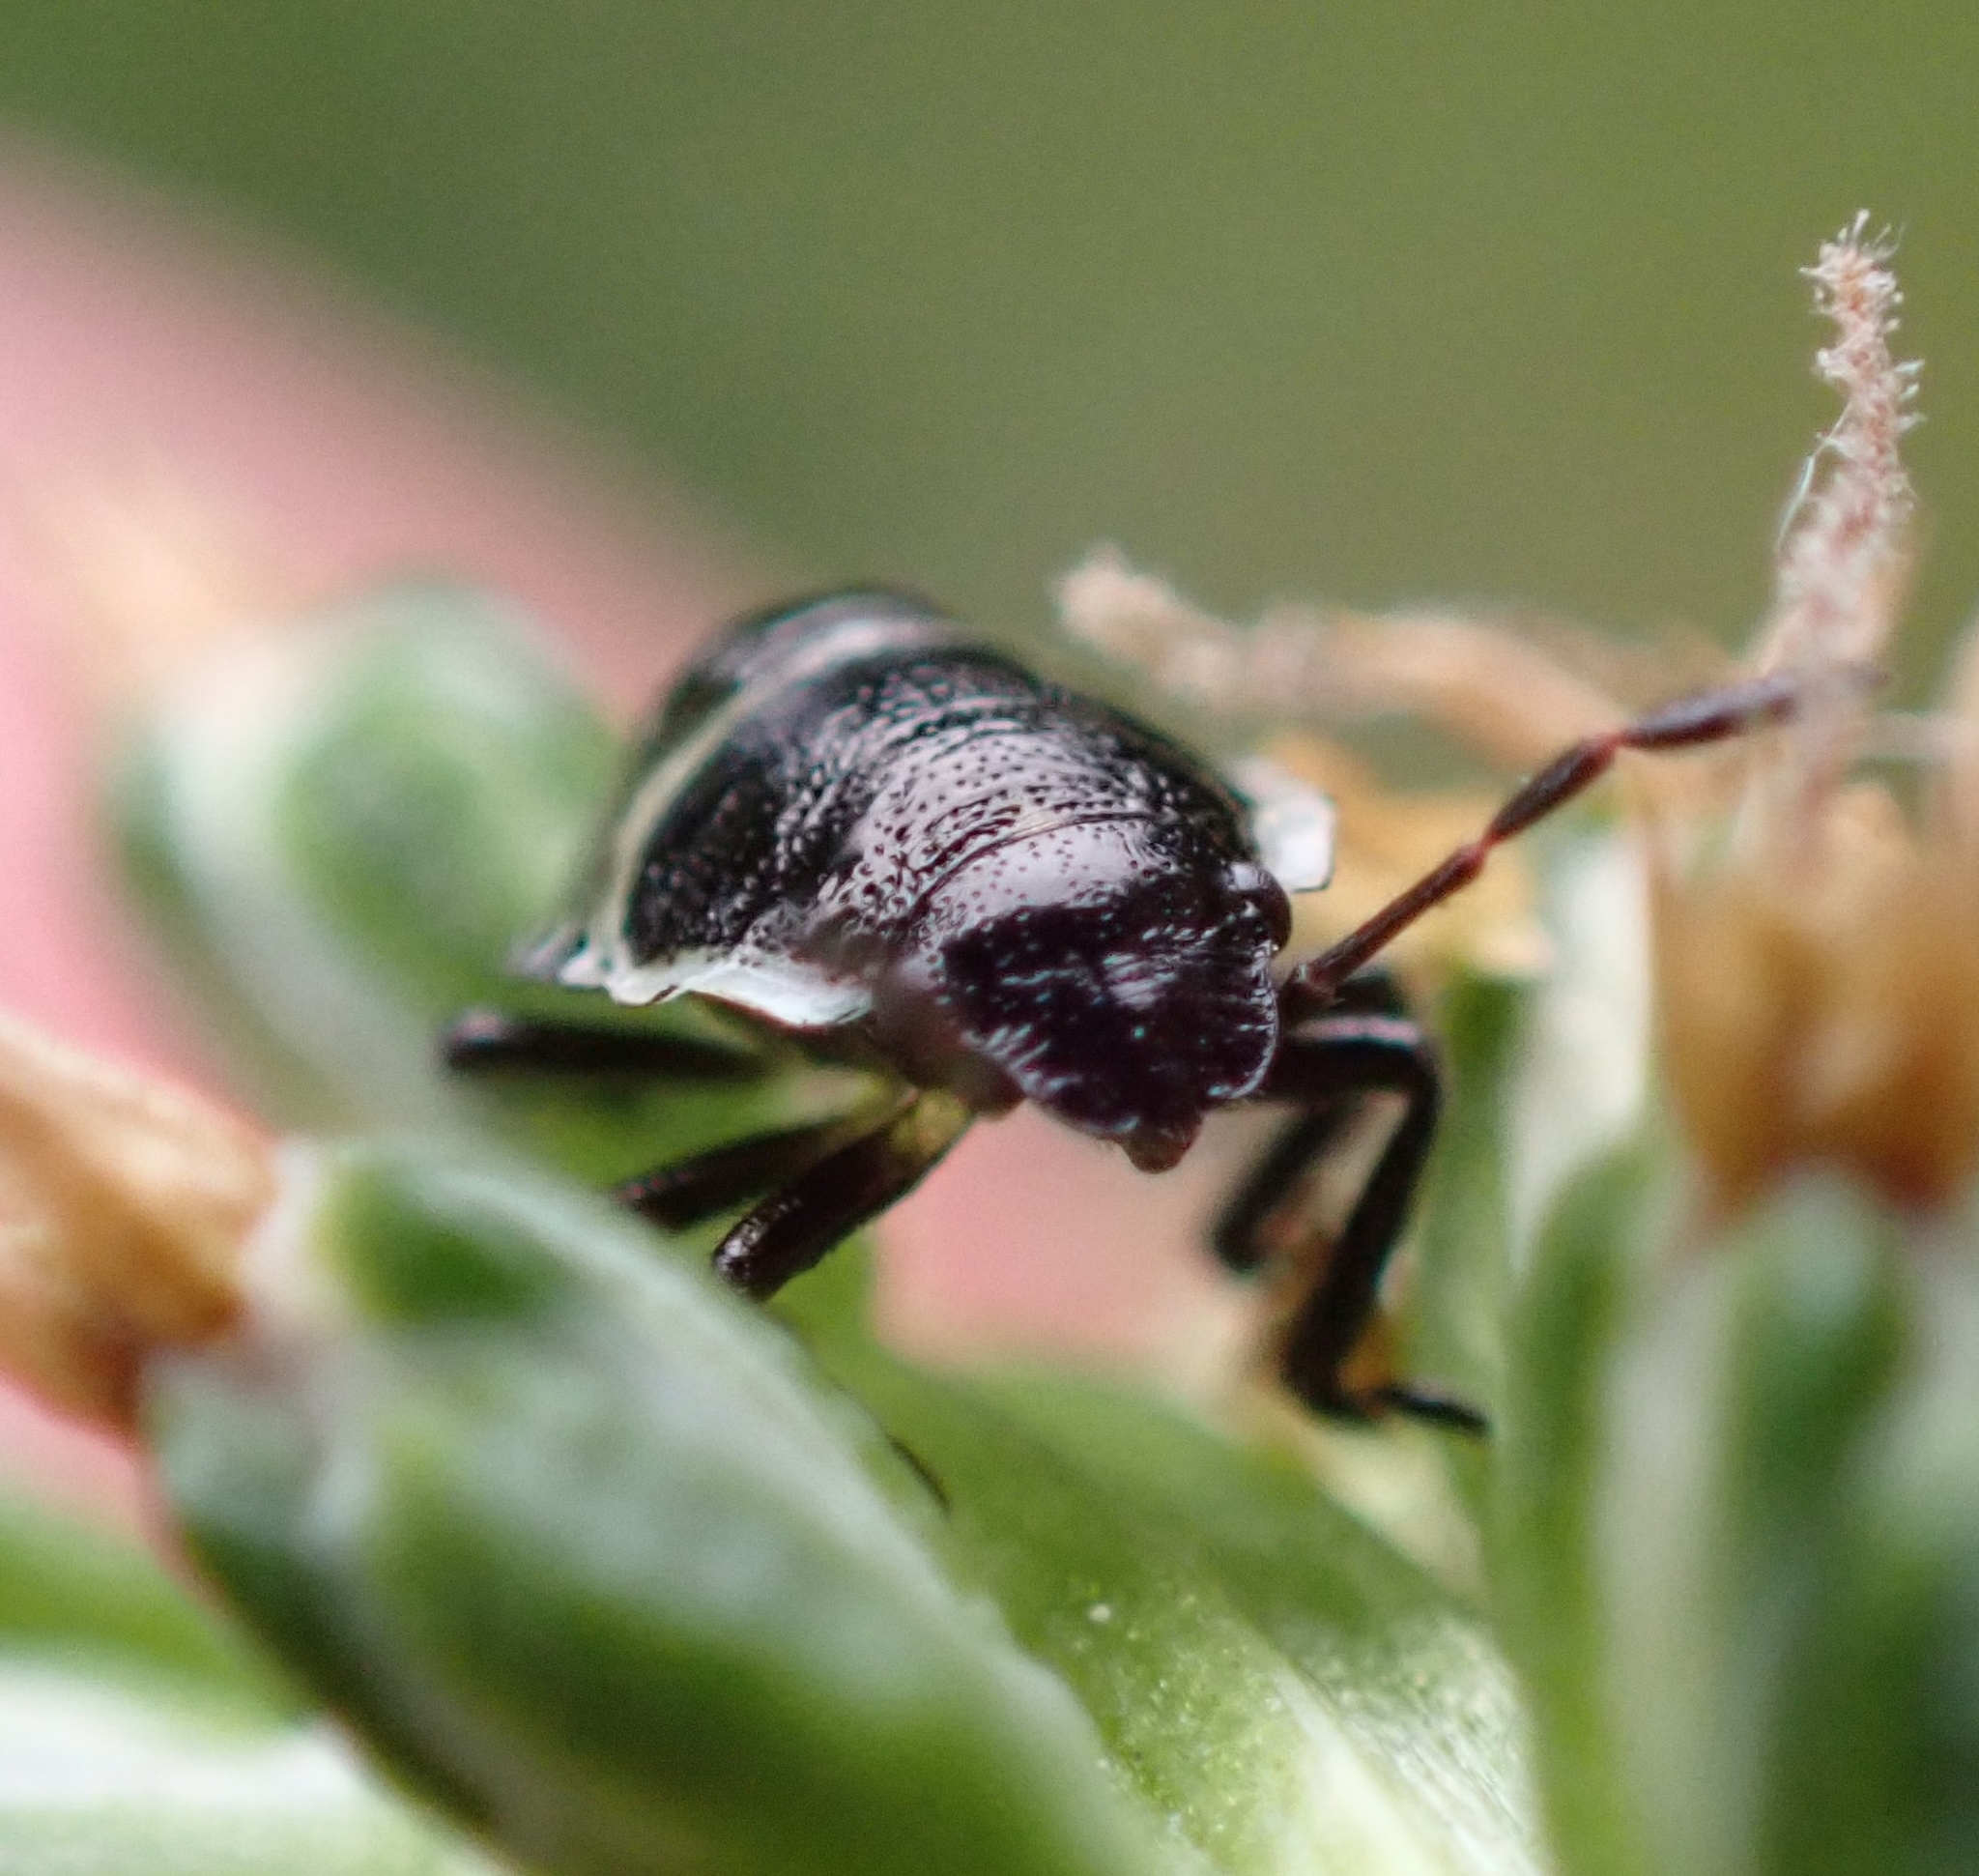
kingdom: Animalia
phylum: Arthropoda
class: Insecta
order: Hemiptera
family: Pentatomidae
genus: Palomena
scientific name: Palomena prasina
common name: Green shieldbug
